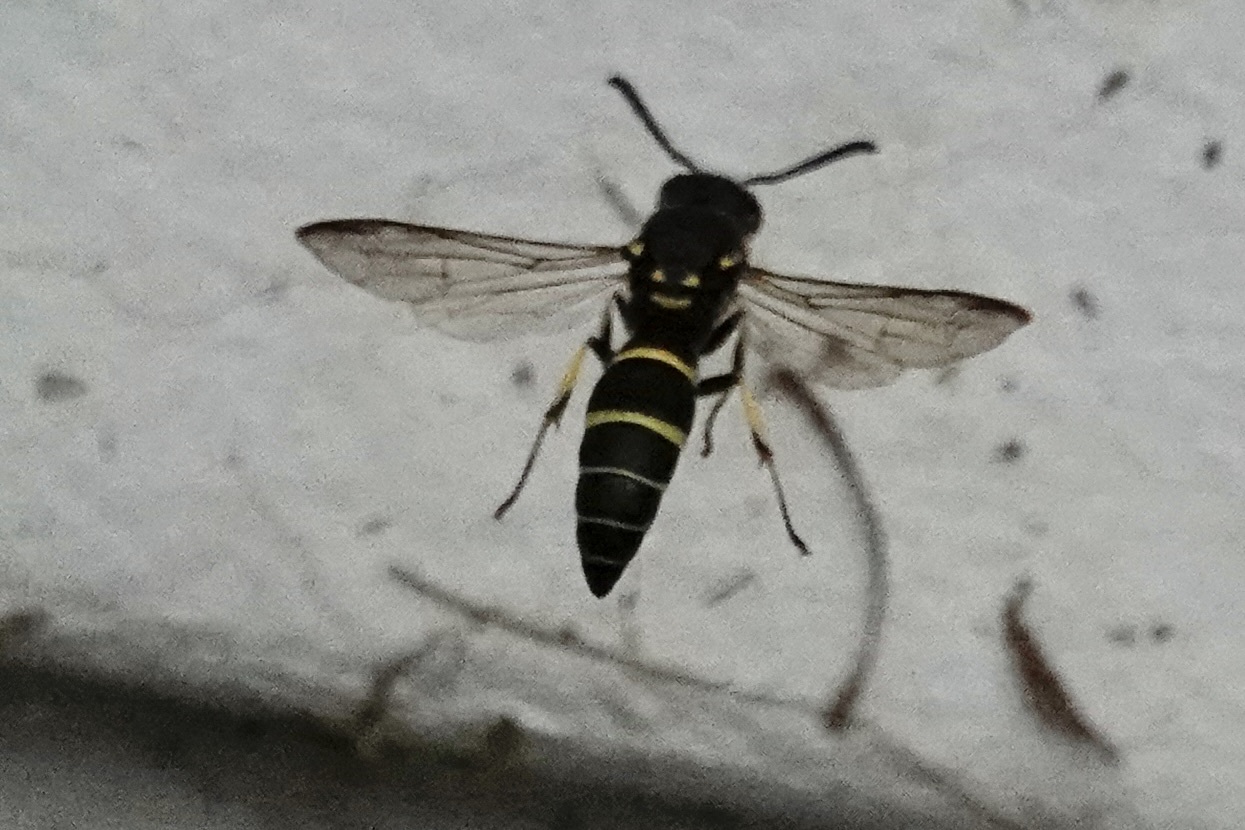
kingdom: Animalia
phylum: Arthropoda
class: Insecta
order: Hymenoptera
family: Vespidae
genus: Ancistrocerus
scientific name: Ancistrocerus adiabatus
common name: Bramble mason wasp
